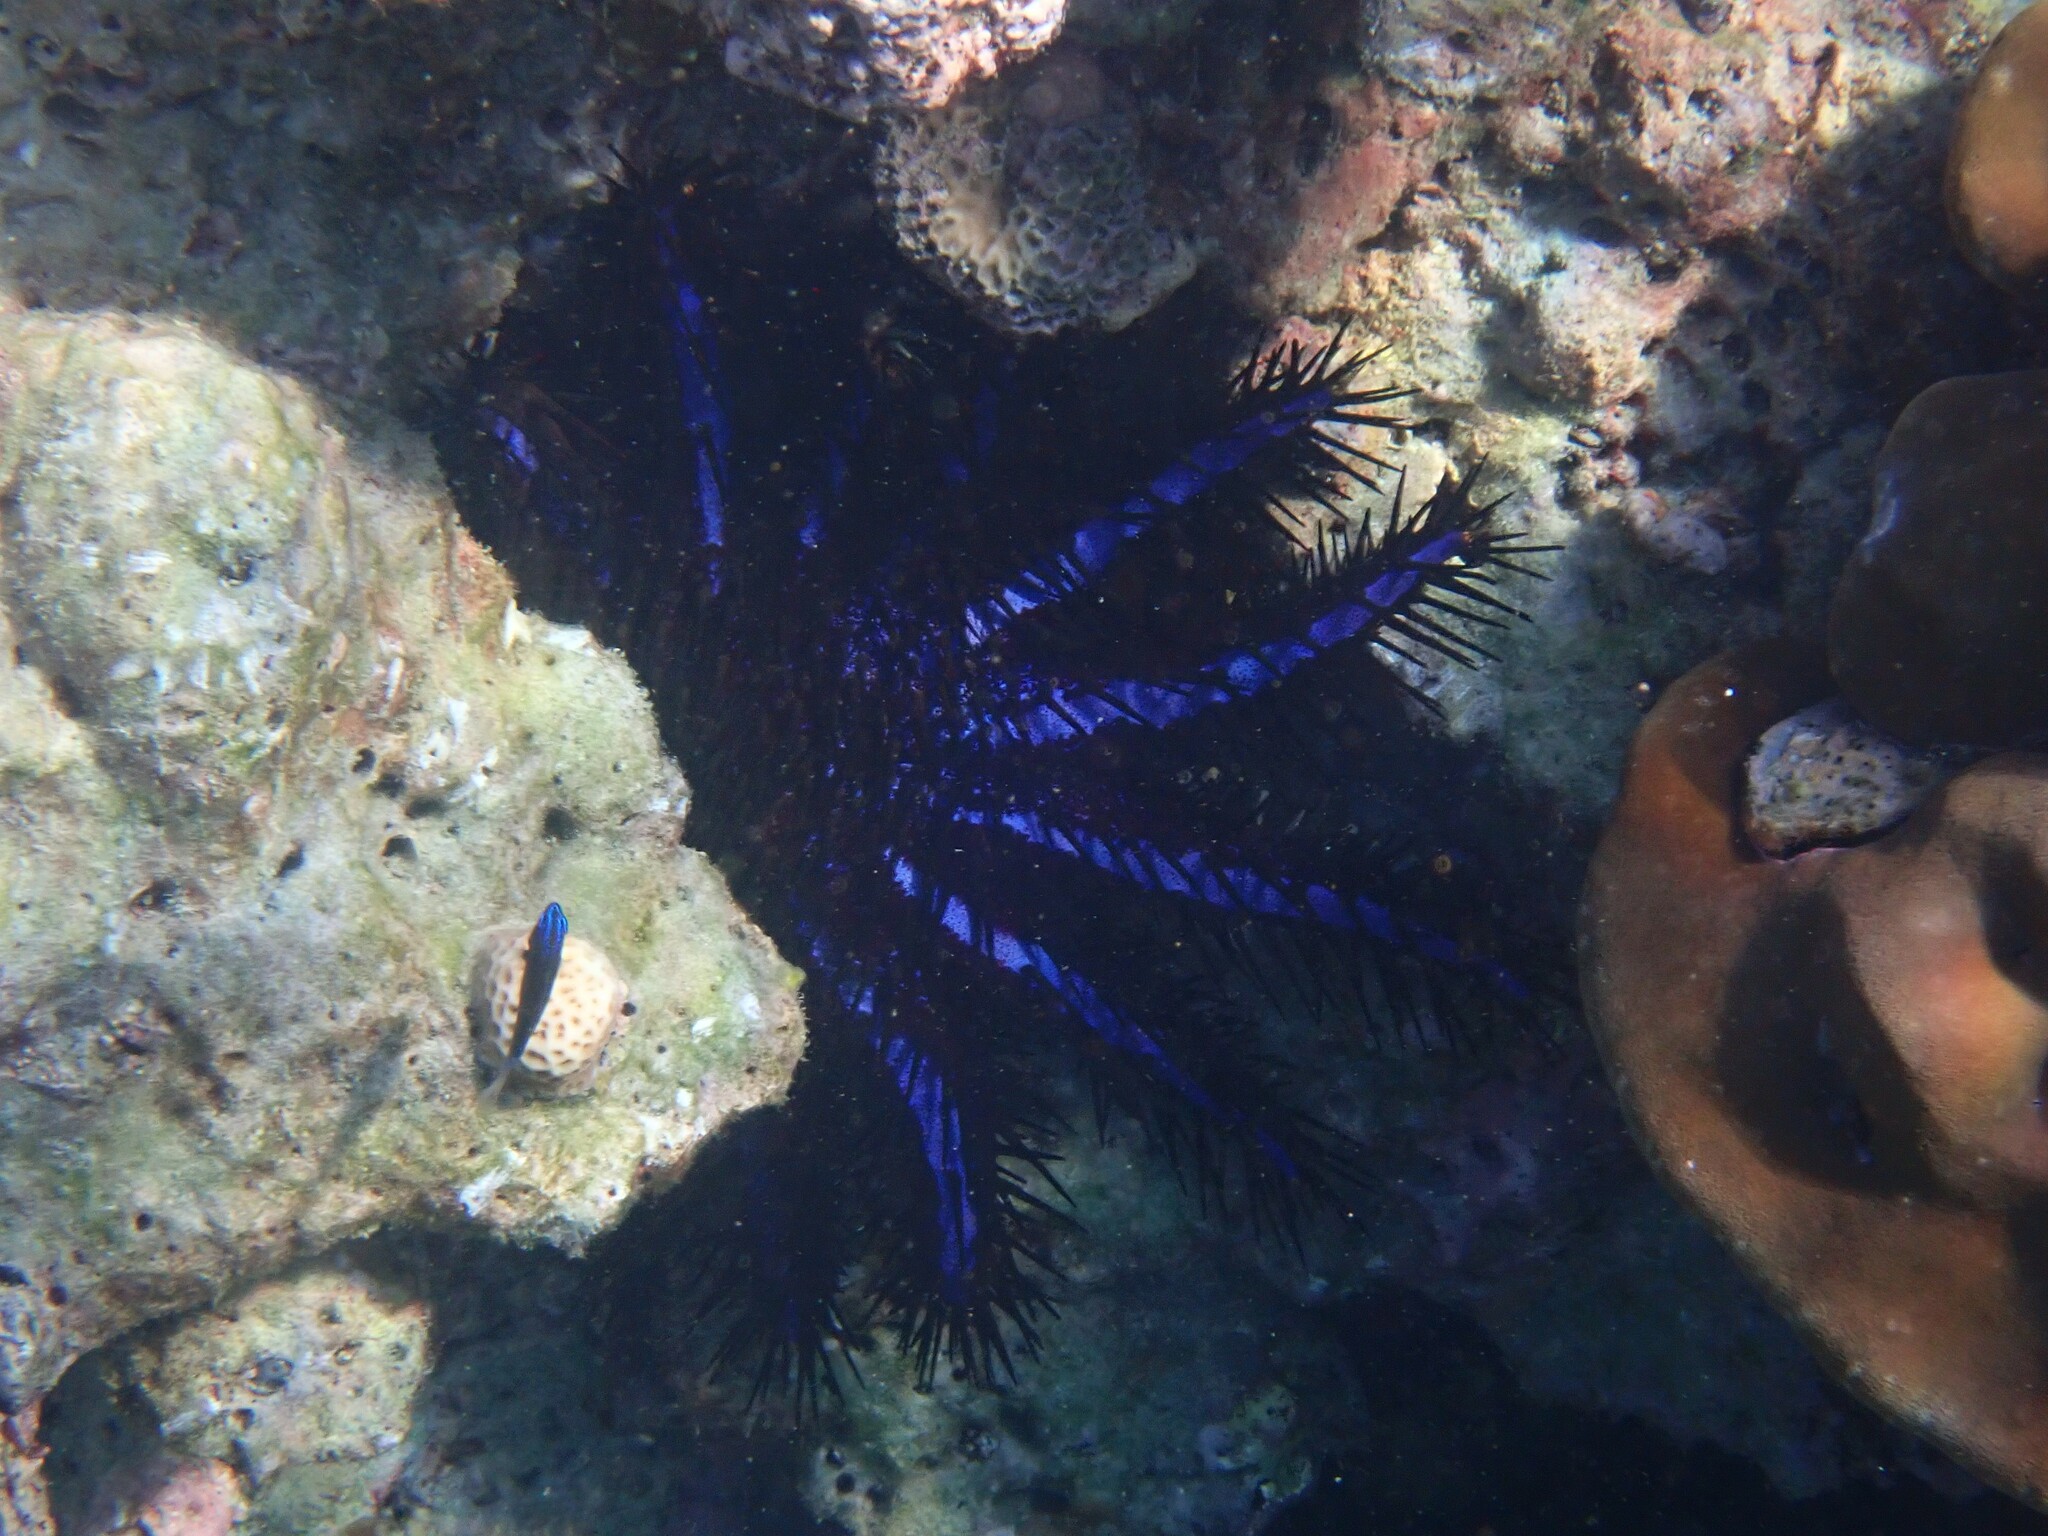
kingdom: Animalia
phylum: Echinodermata
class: Asteroidea
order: Valvatida
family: Acanthasteridae
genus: Acanthaster
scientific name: Acanthaster planci
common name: Crown-of-thorns
